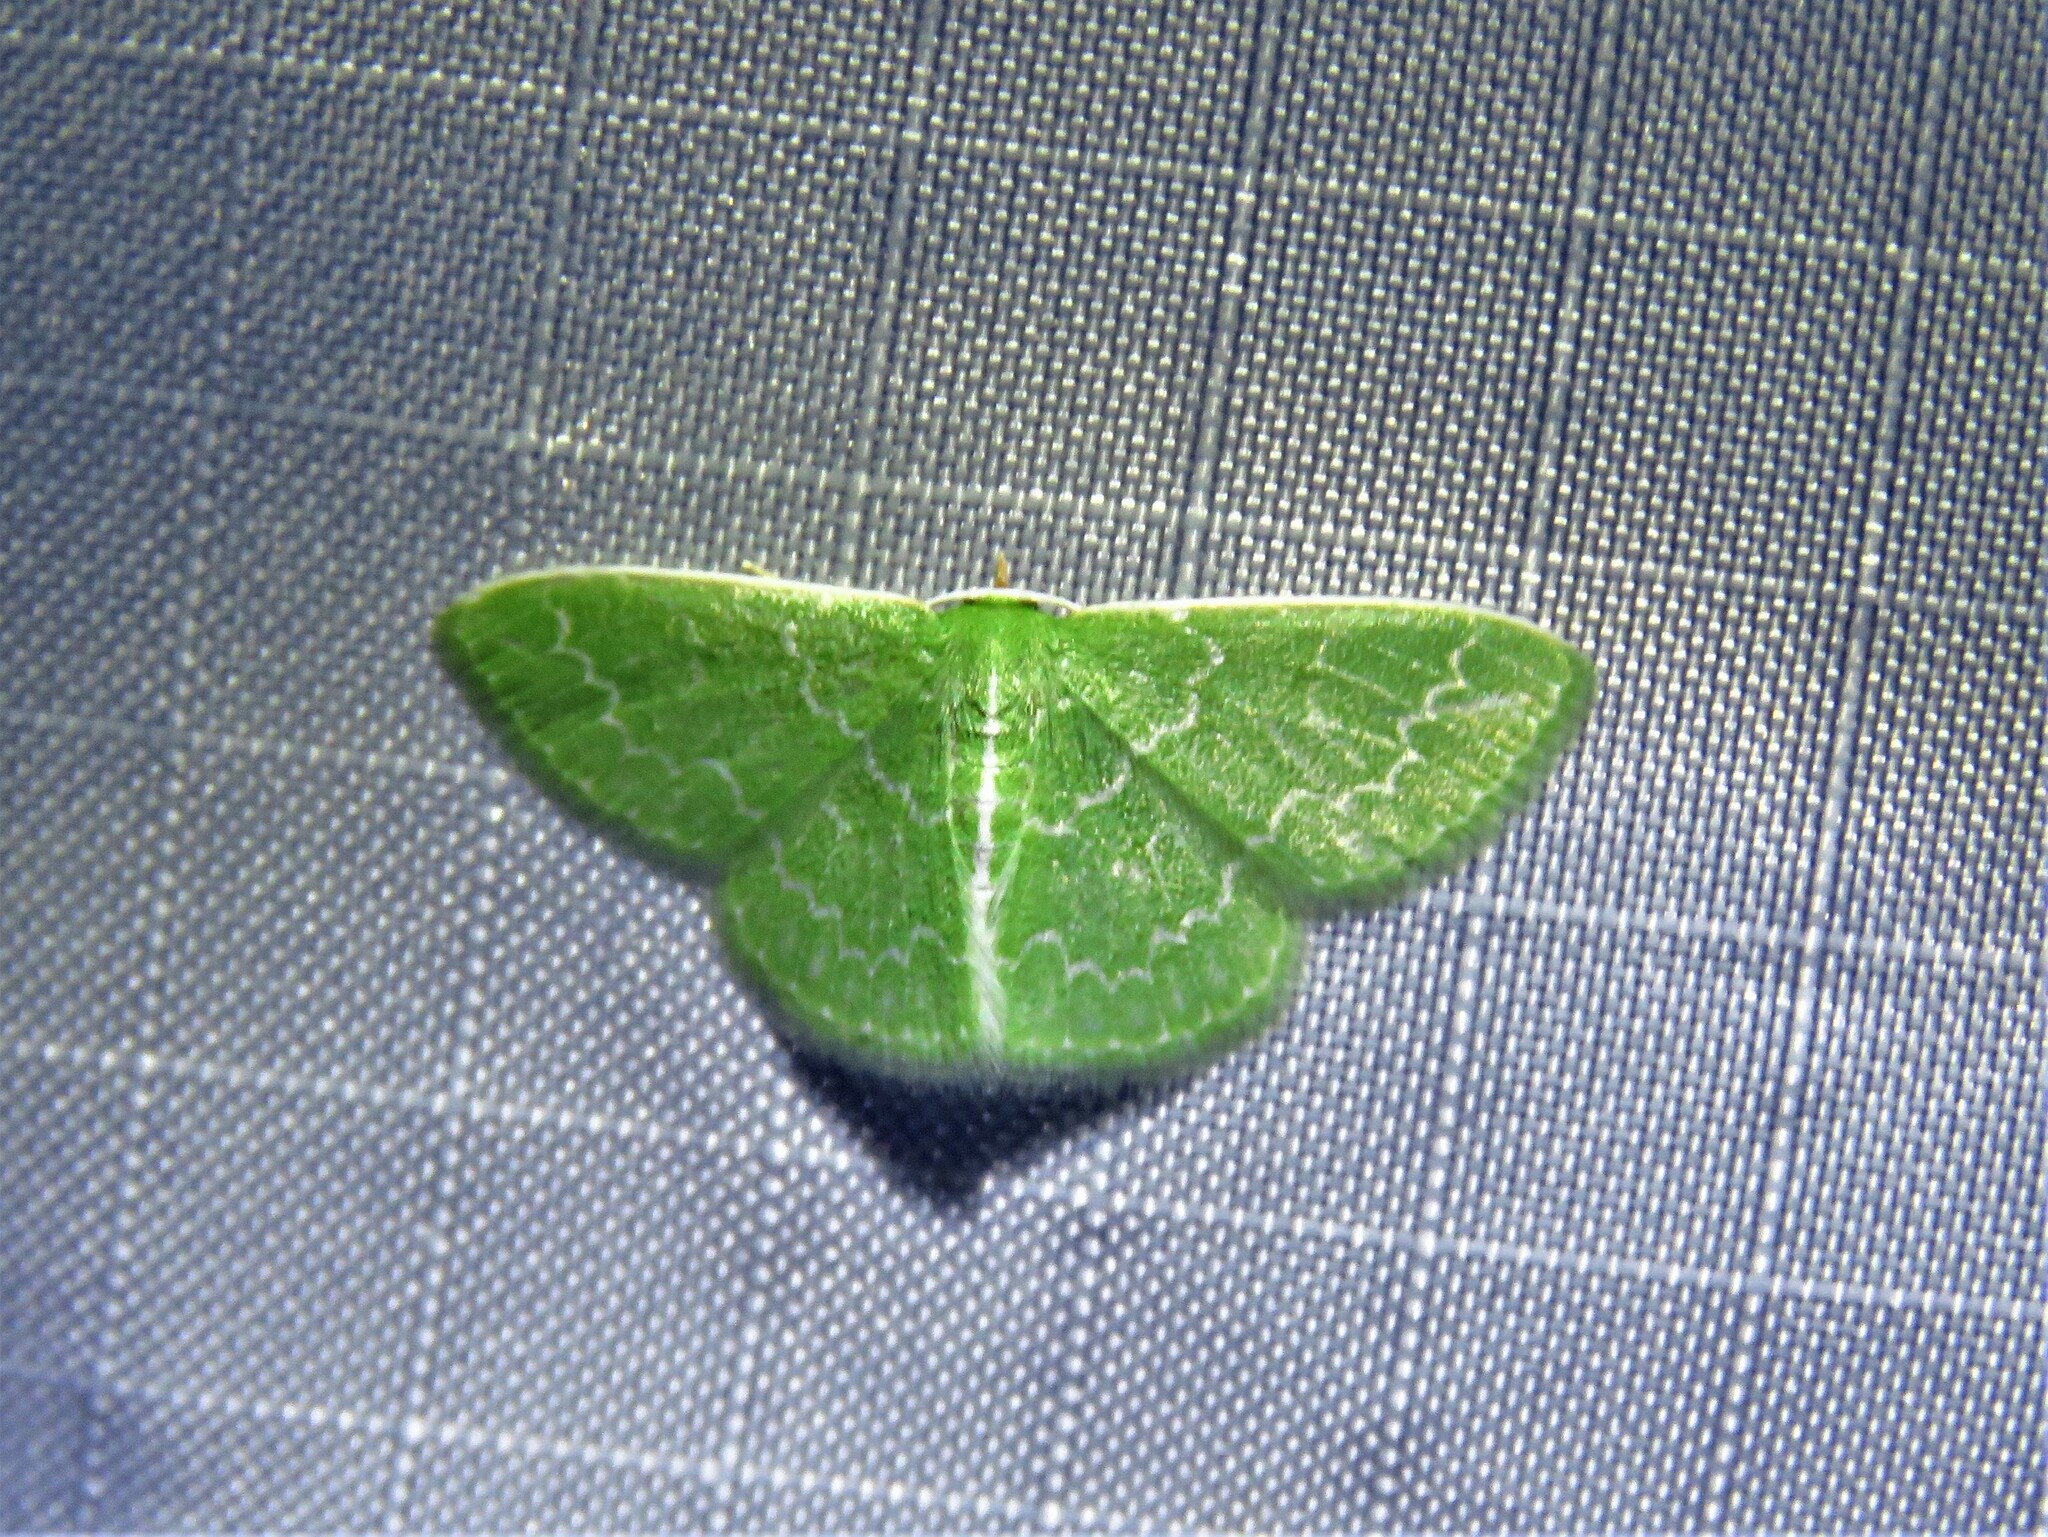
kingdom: Animalia
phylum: Arthropoda
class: Insecta
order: Lepidoptera
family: Geometridae
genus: Synchlora
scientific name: Synchlora frondaria
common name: Southern emerald
